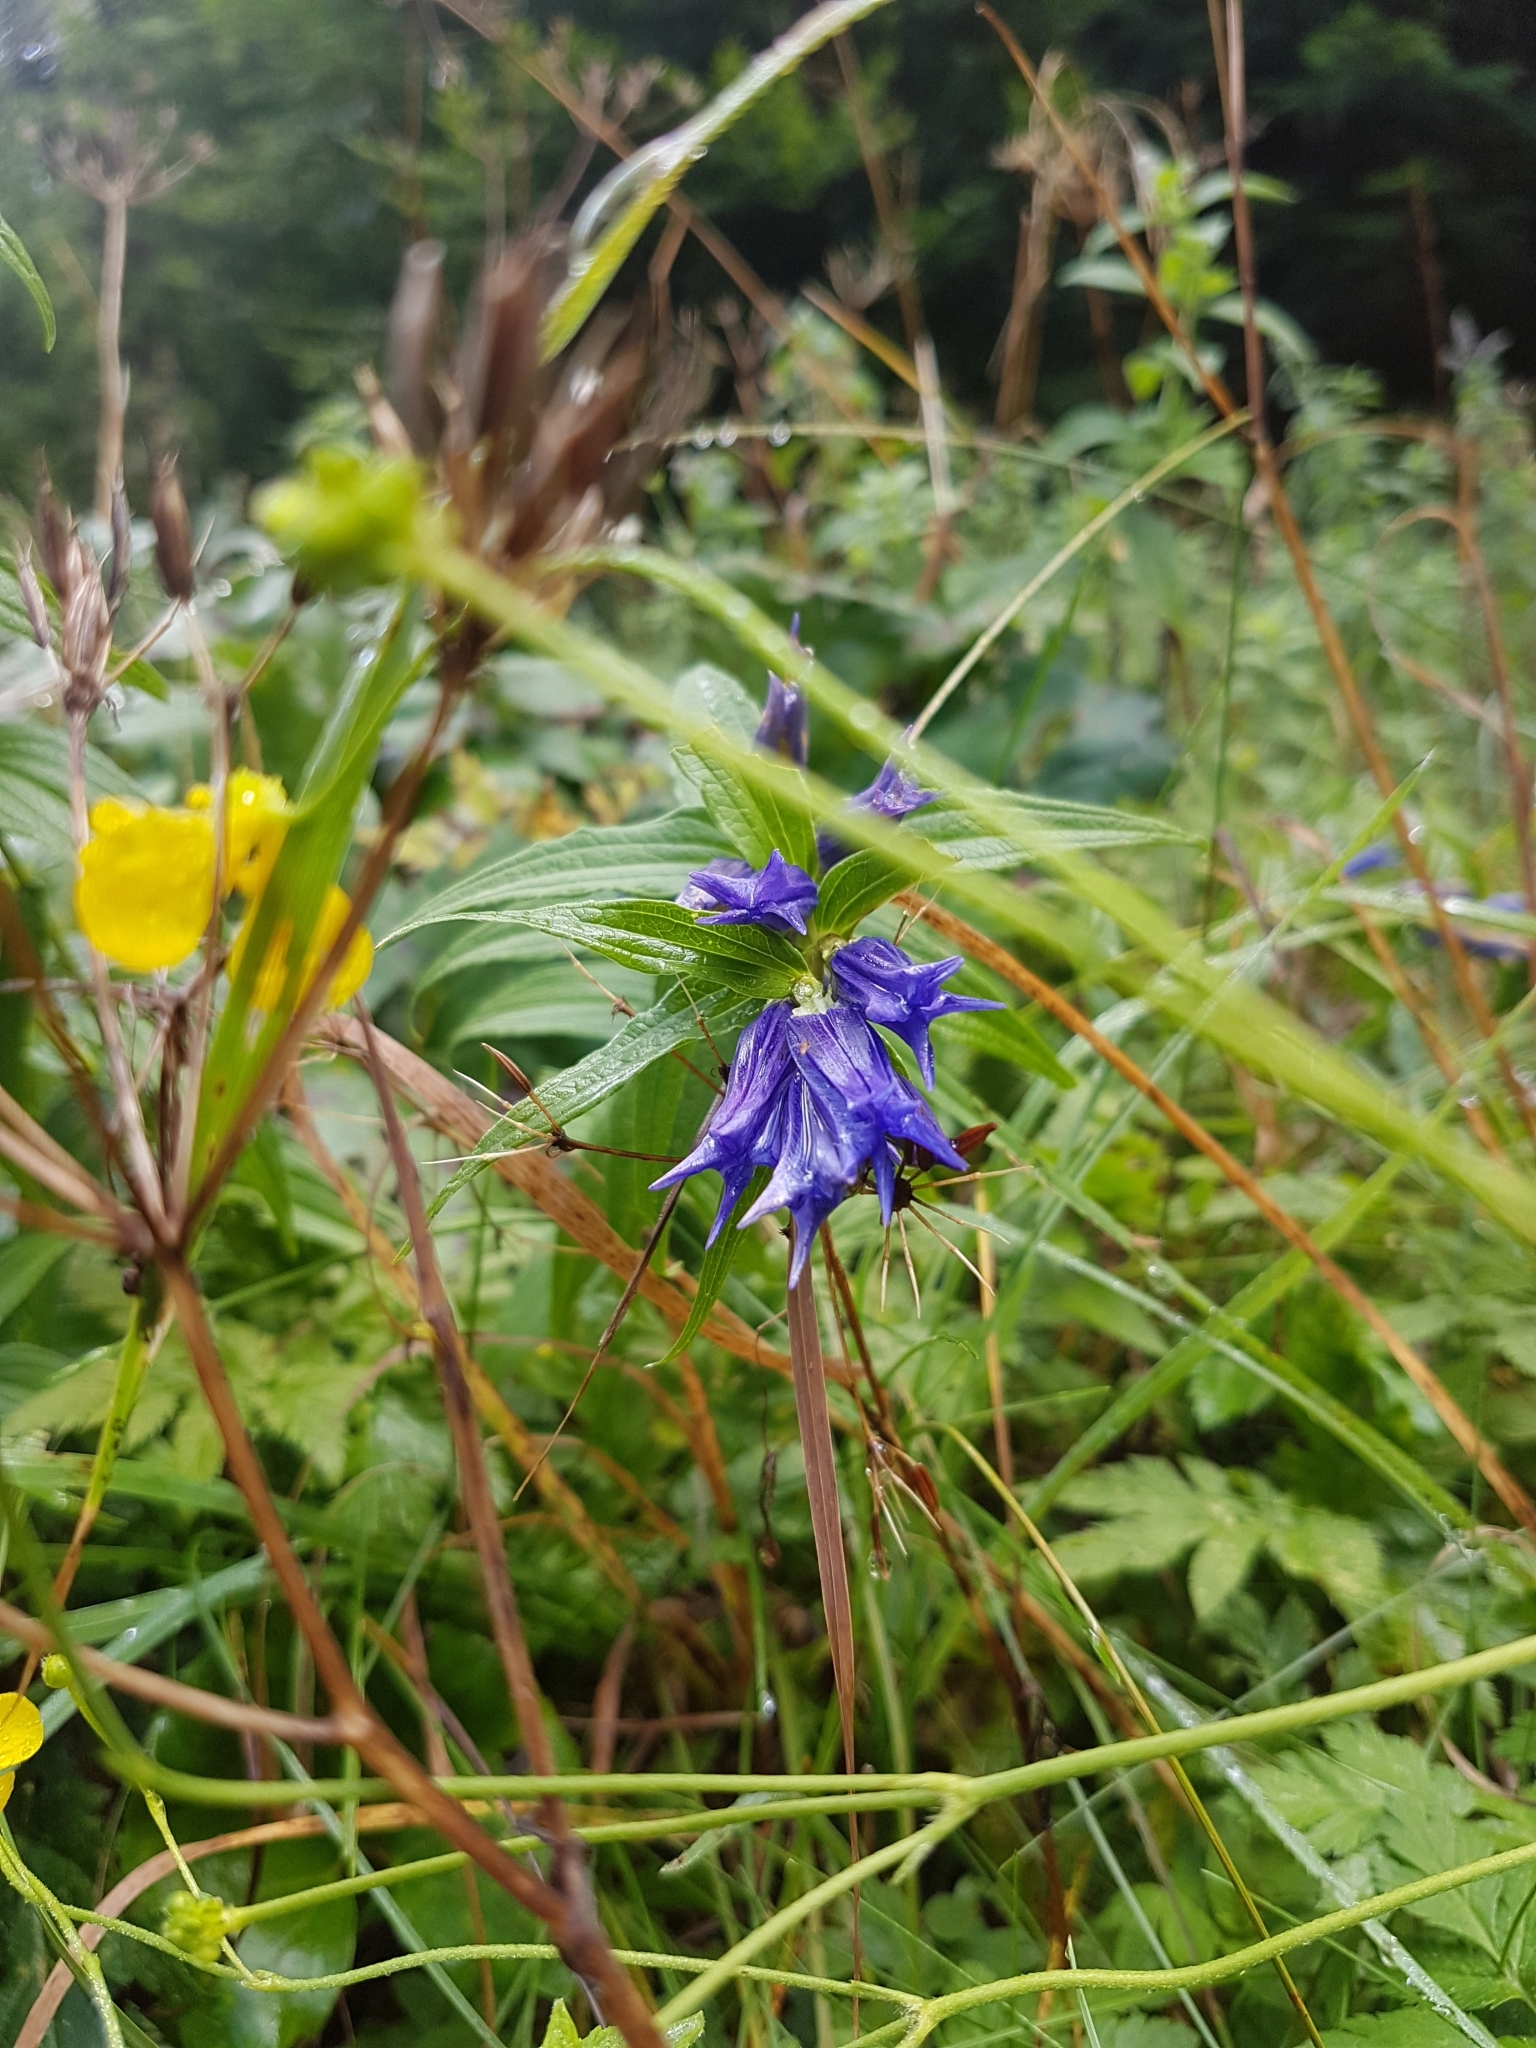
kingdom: Plantae
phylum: Tracheophyta
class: Magnoliopsida
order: Gentianales
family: Gentianaceae
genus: Gentiana
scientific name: Gentiana asclepiadea
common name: Willow gentian
